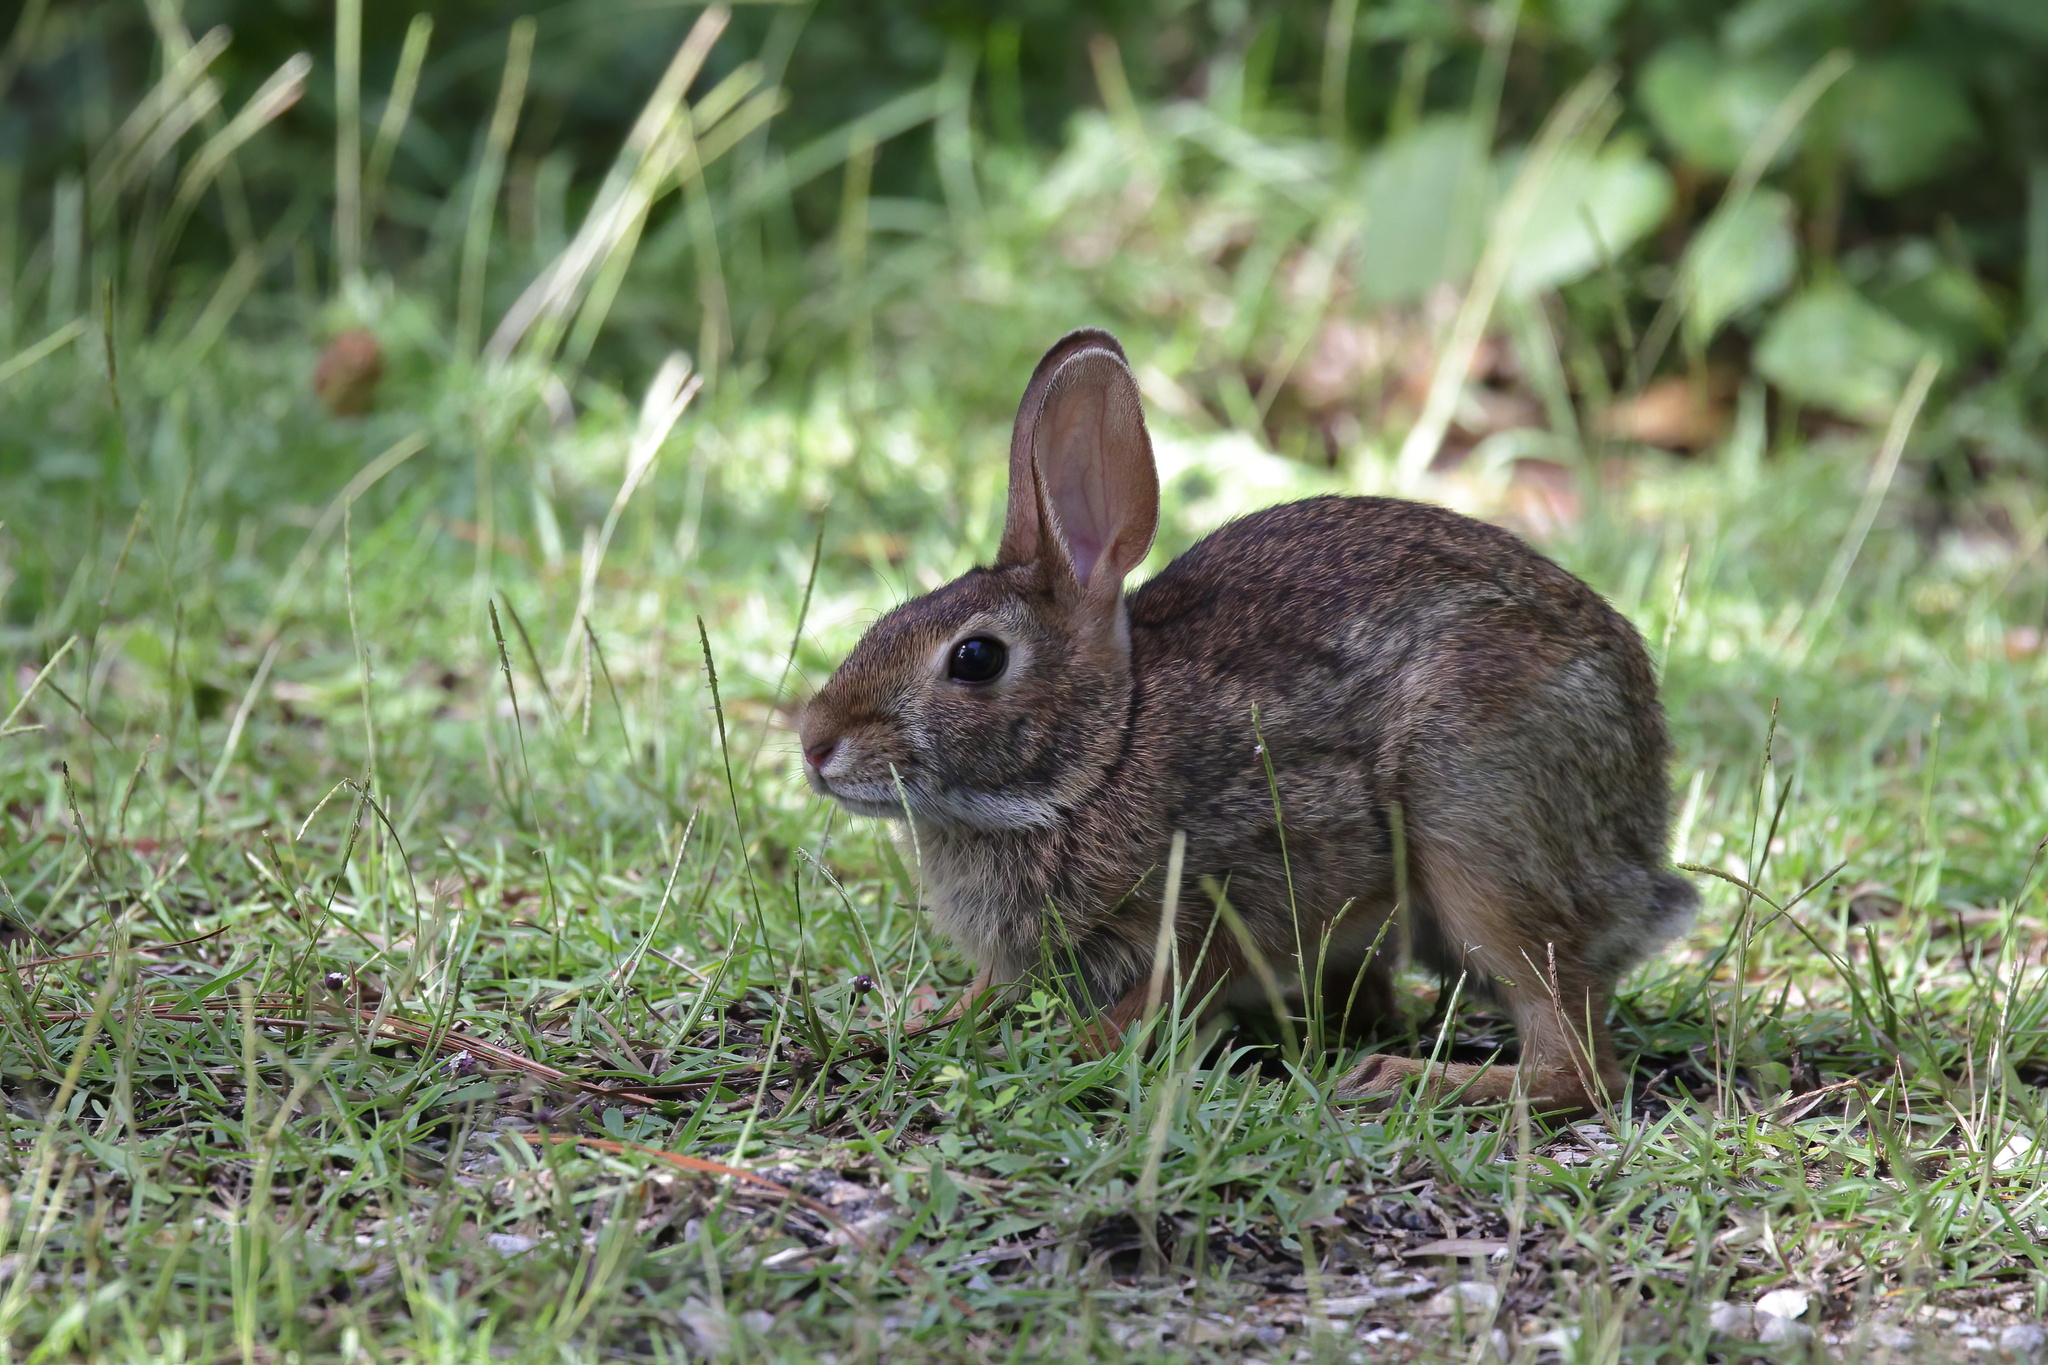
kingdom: Animalia
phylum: Chordata
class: Mammalia
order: Lagomorpha
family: Leporidae
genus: Sylvilagus
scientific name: Sylvilagus floridanus
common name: Eastern cottontail
